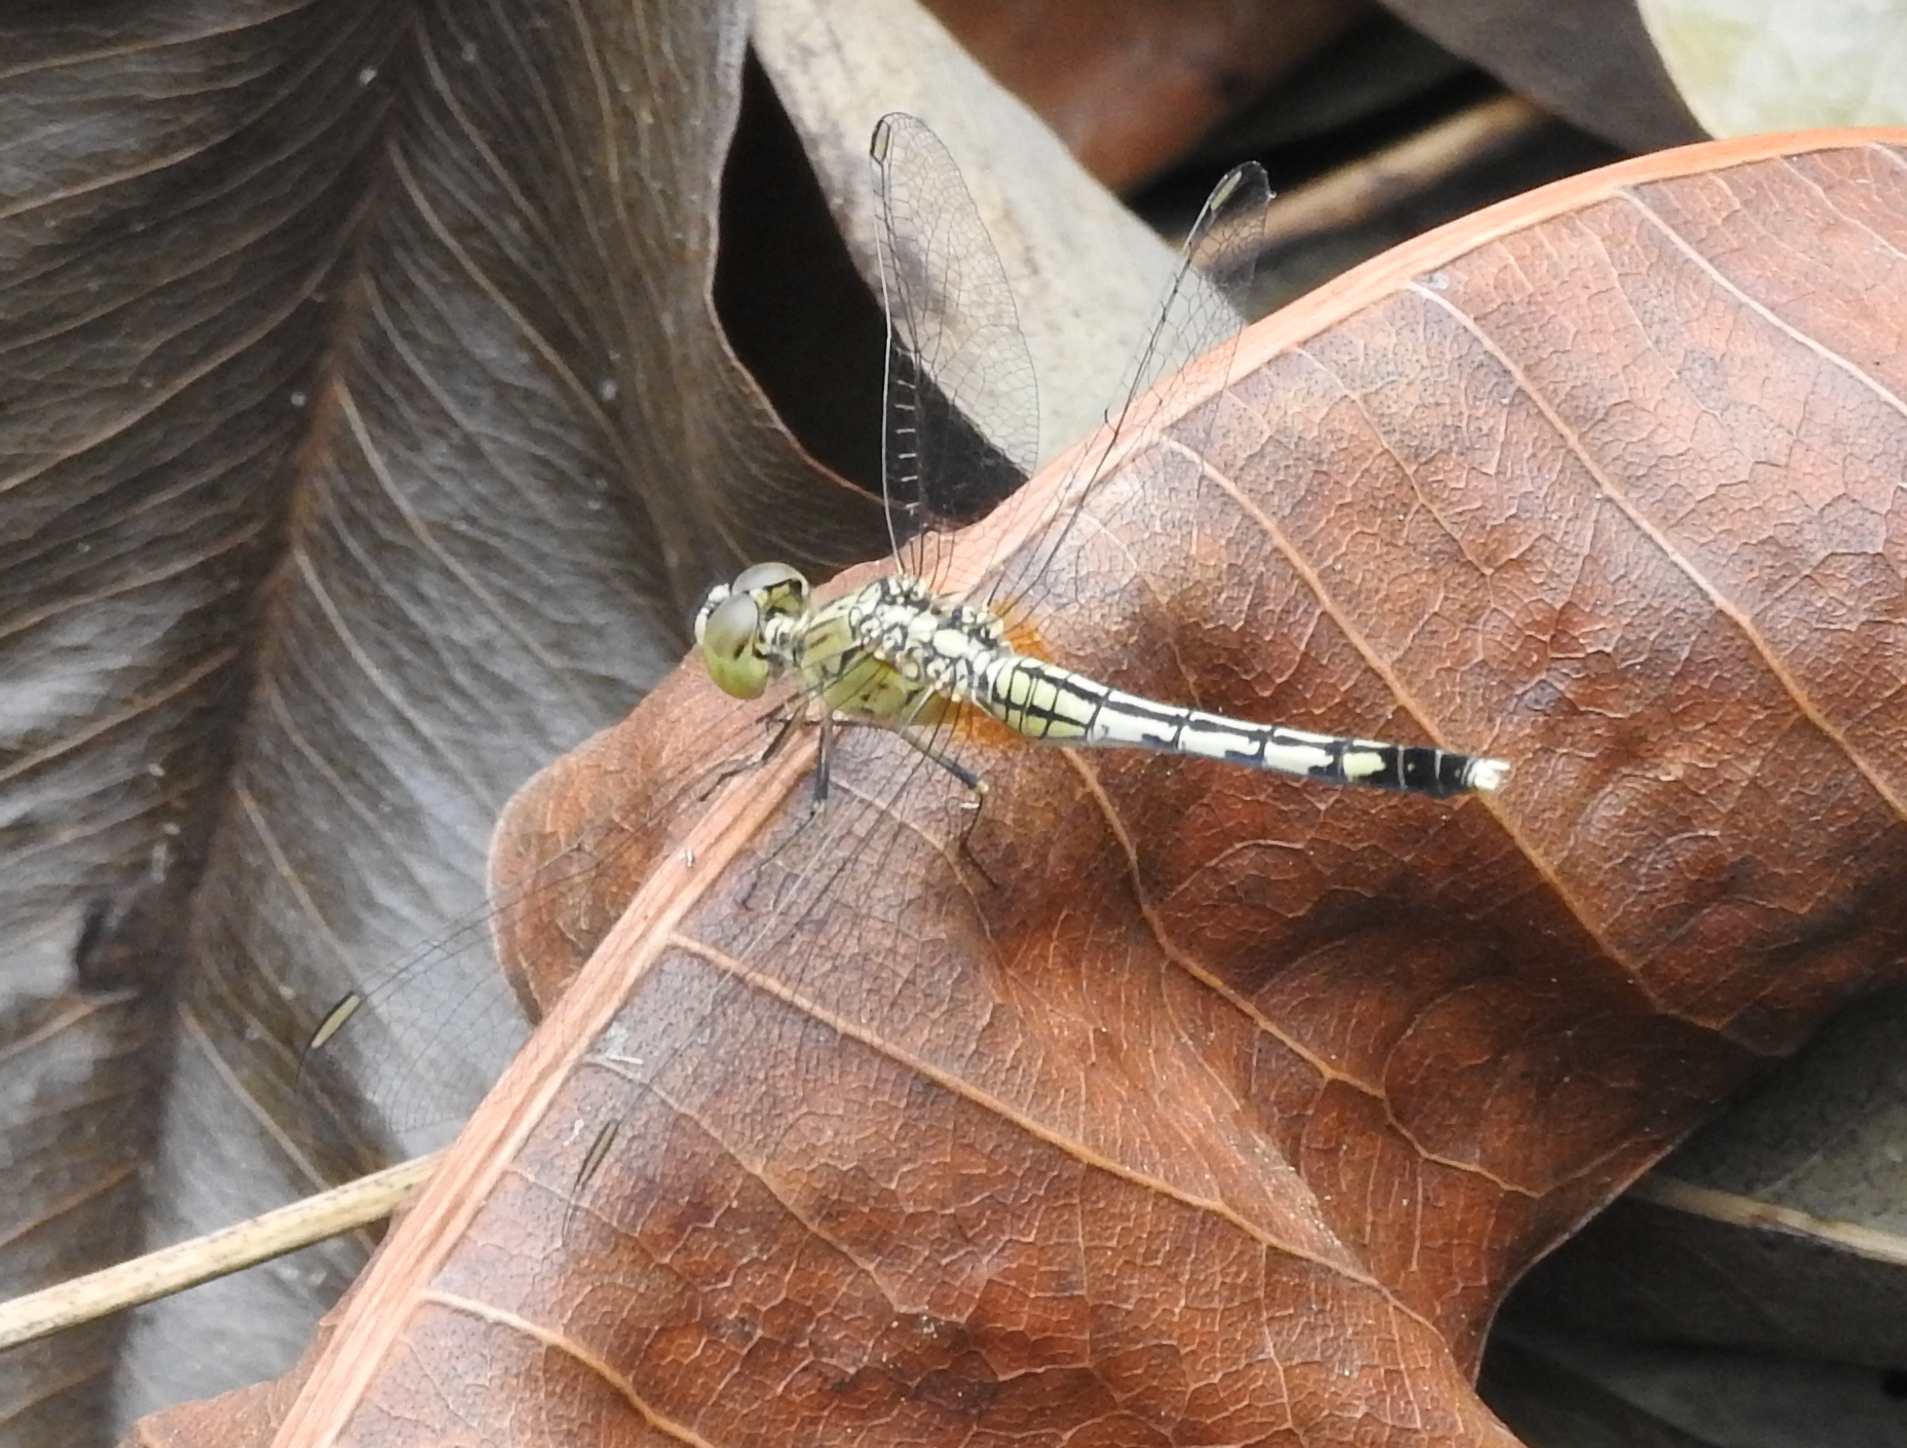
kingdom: Animalia
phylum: Arthropoda
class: Insecta
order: Odonata
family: Libellulidae
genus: Diplacodes
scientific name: Diplacodes trivialis
